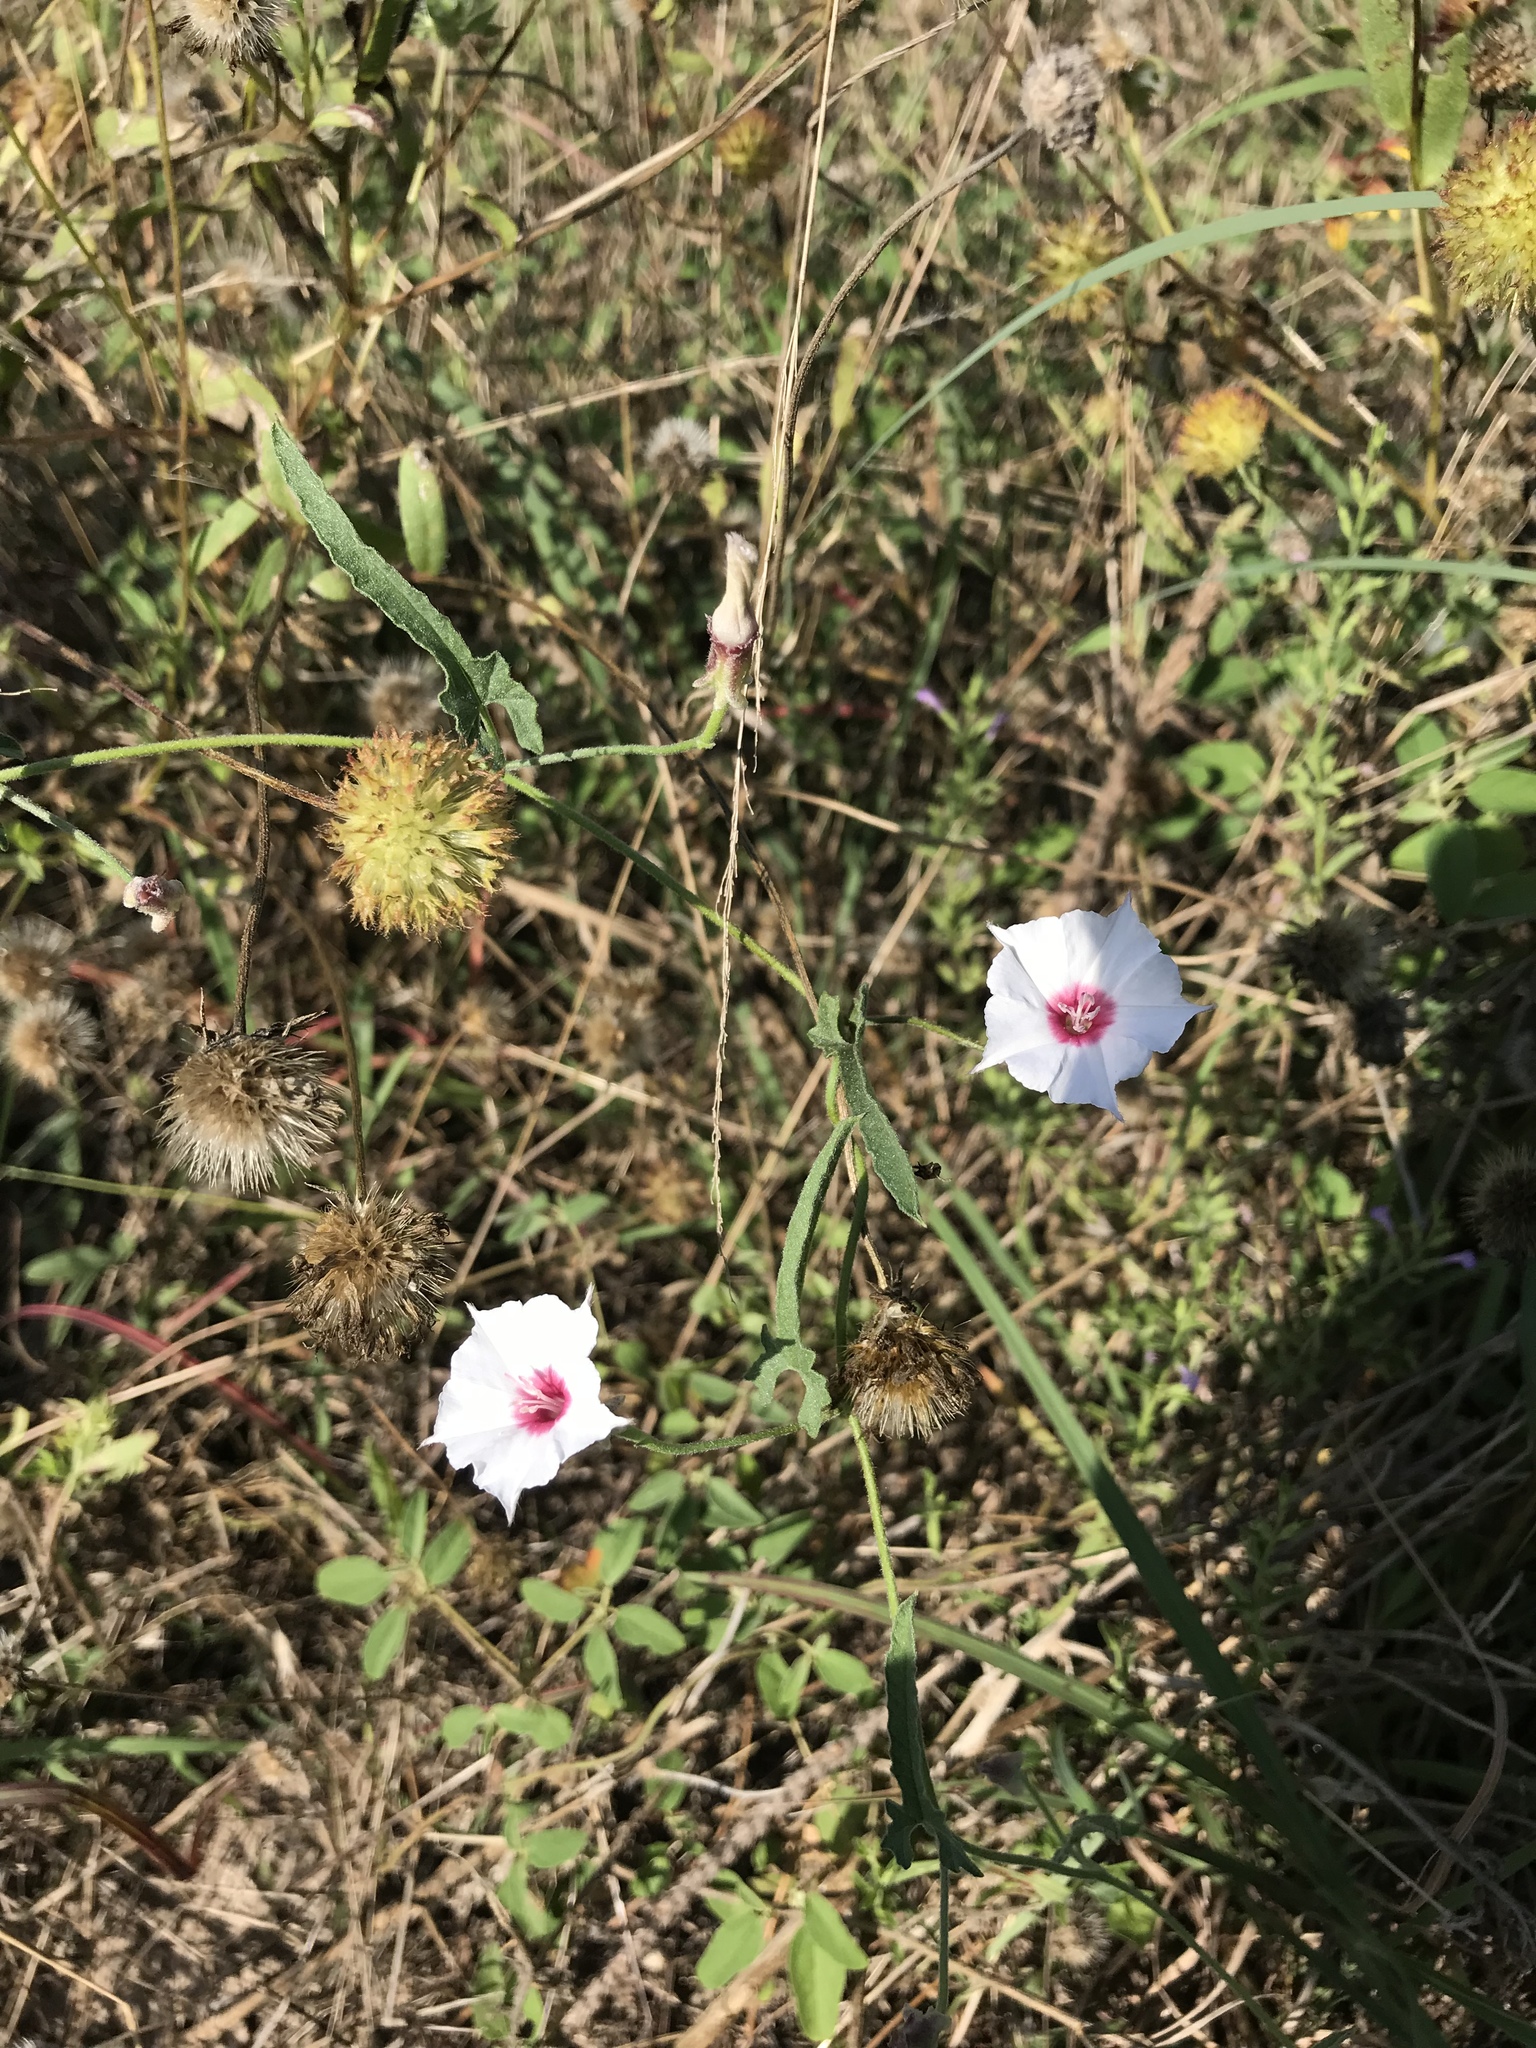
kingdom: Plantae
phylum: Tracheophyta
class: Magnoliopsida
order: Solanales
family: Convolvulaceae
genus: Convolvulus
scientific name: Convolvulus equitans
